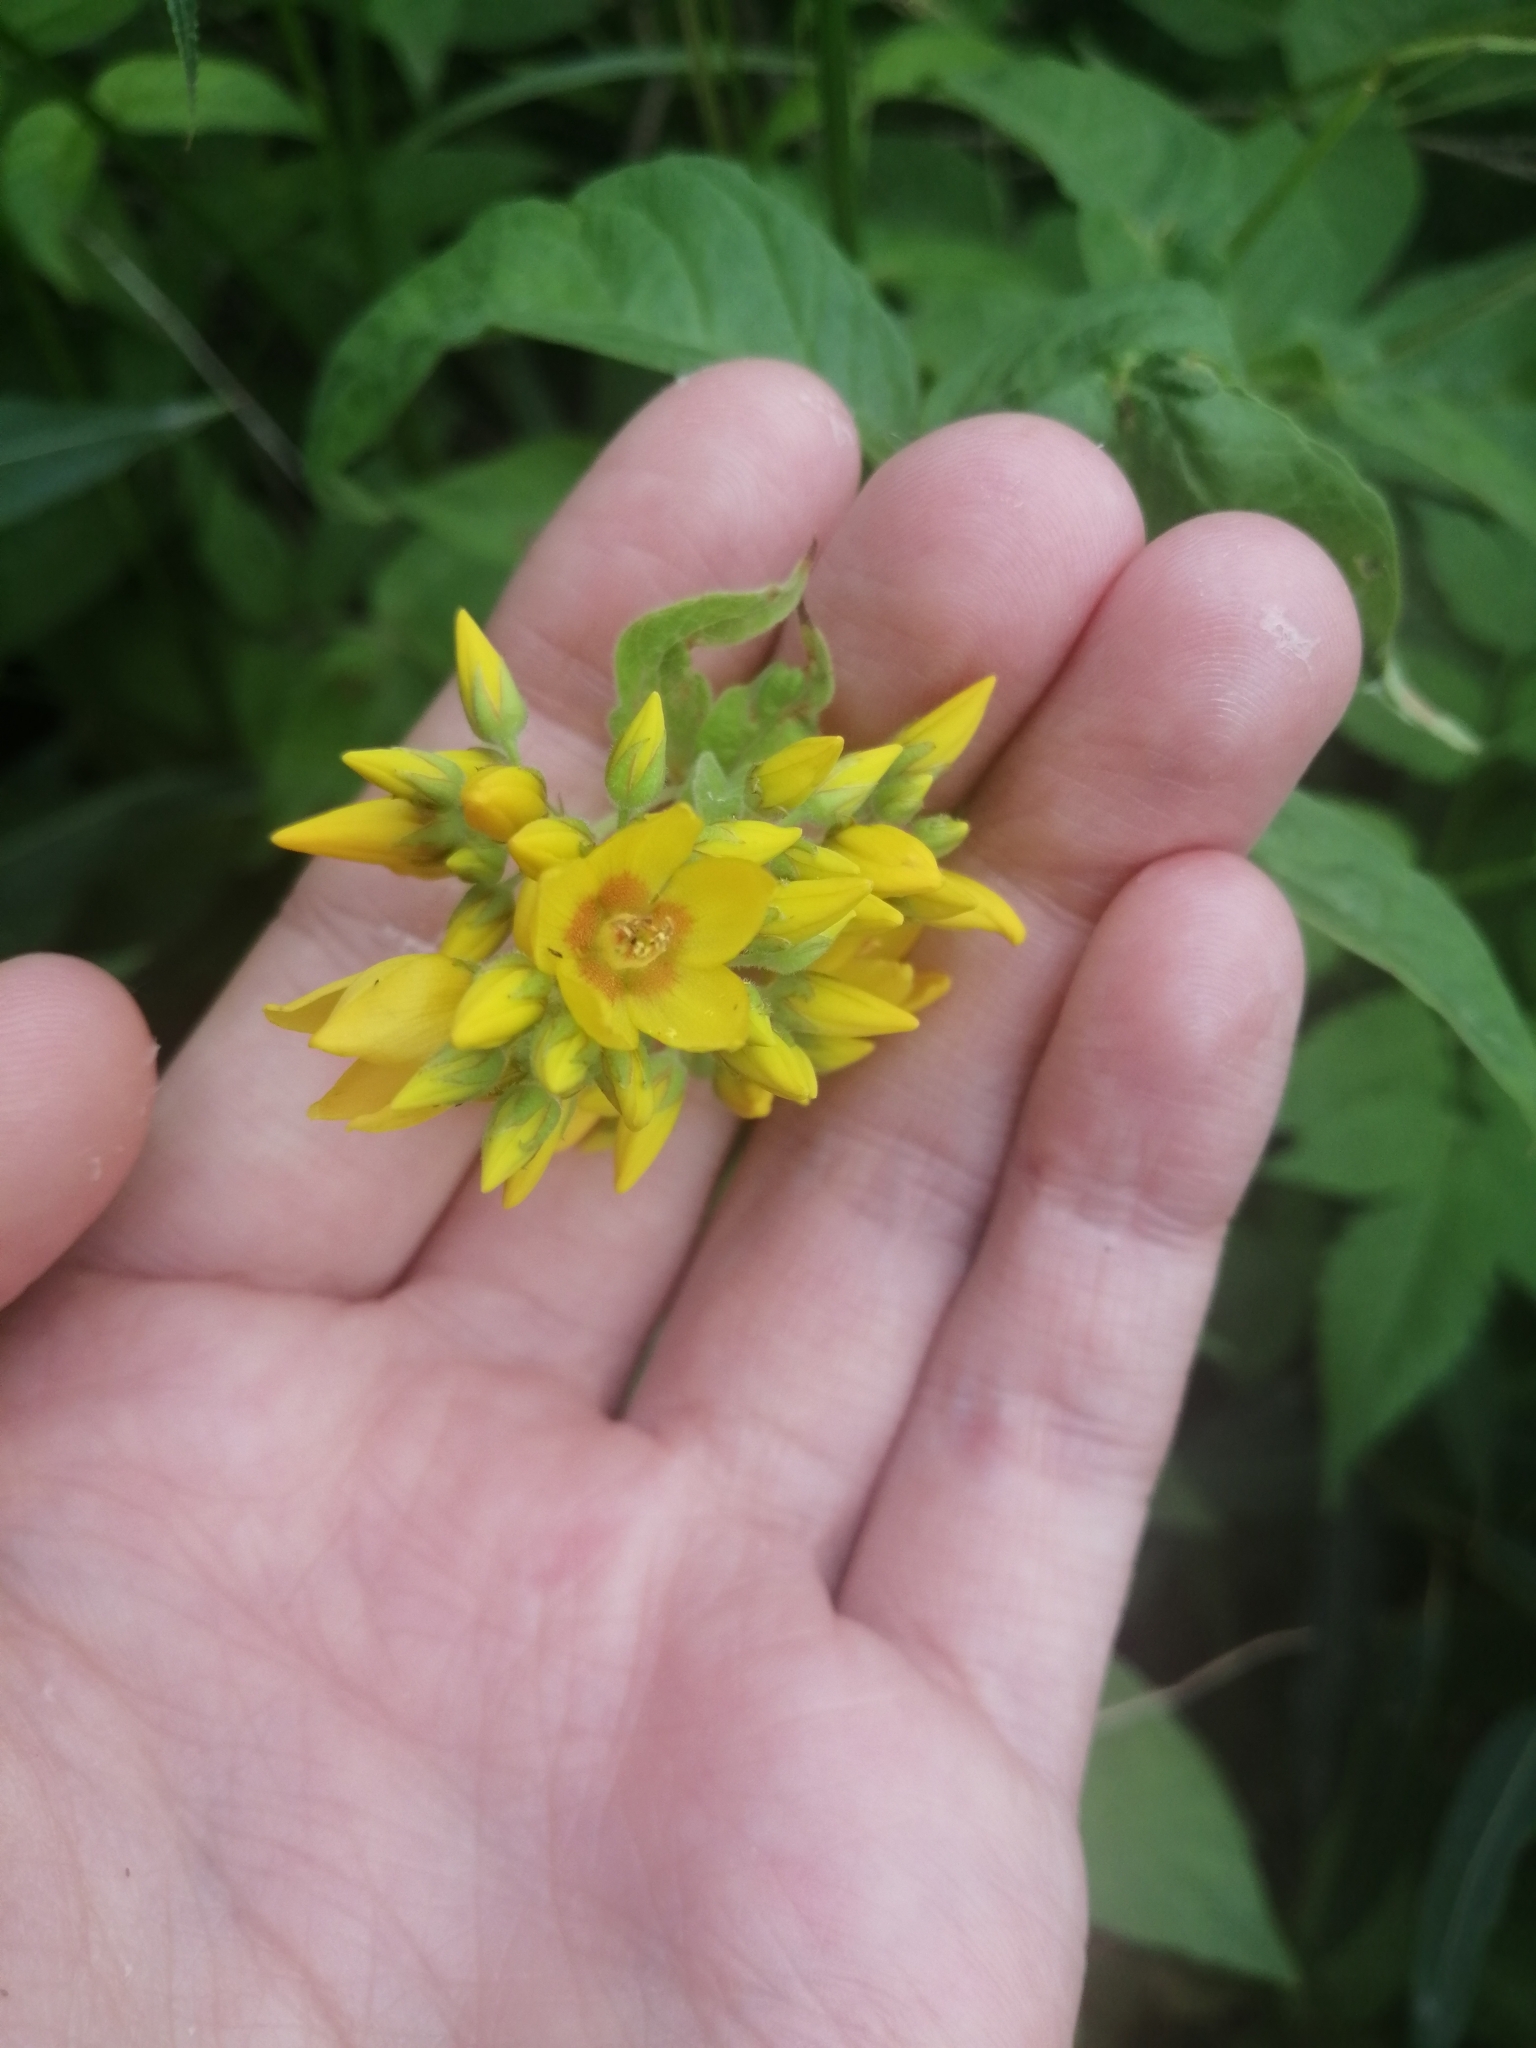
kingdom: Plantae
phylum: Tracheophyta
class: Magnoliopsida
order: Ericales
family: Primulaceae
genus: Lysimachia
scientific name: Lysimachia vulgaris
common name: Yellow loosestrife
